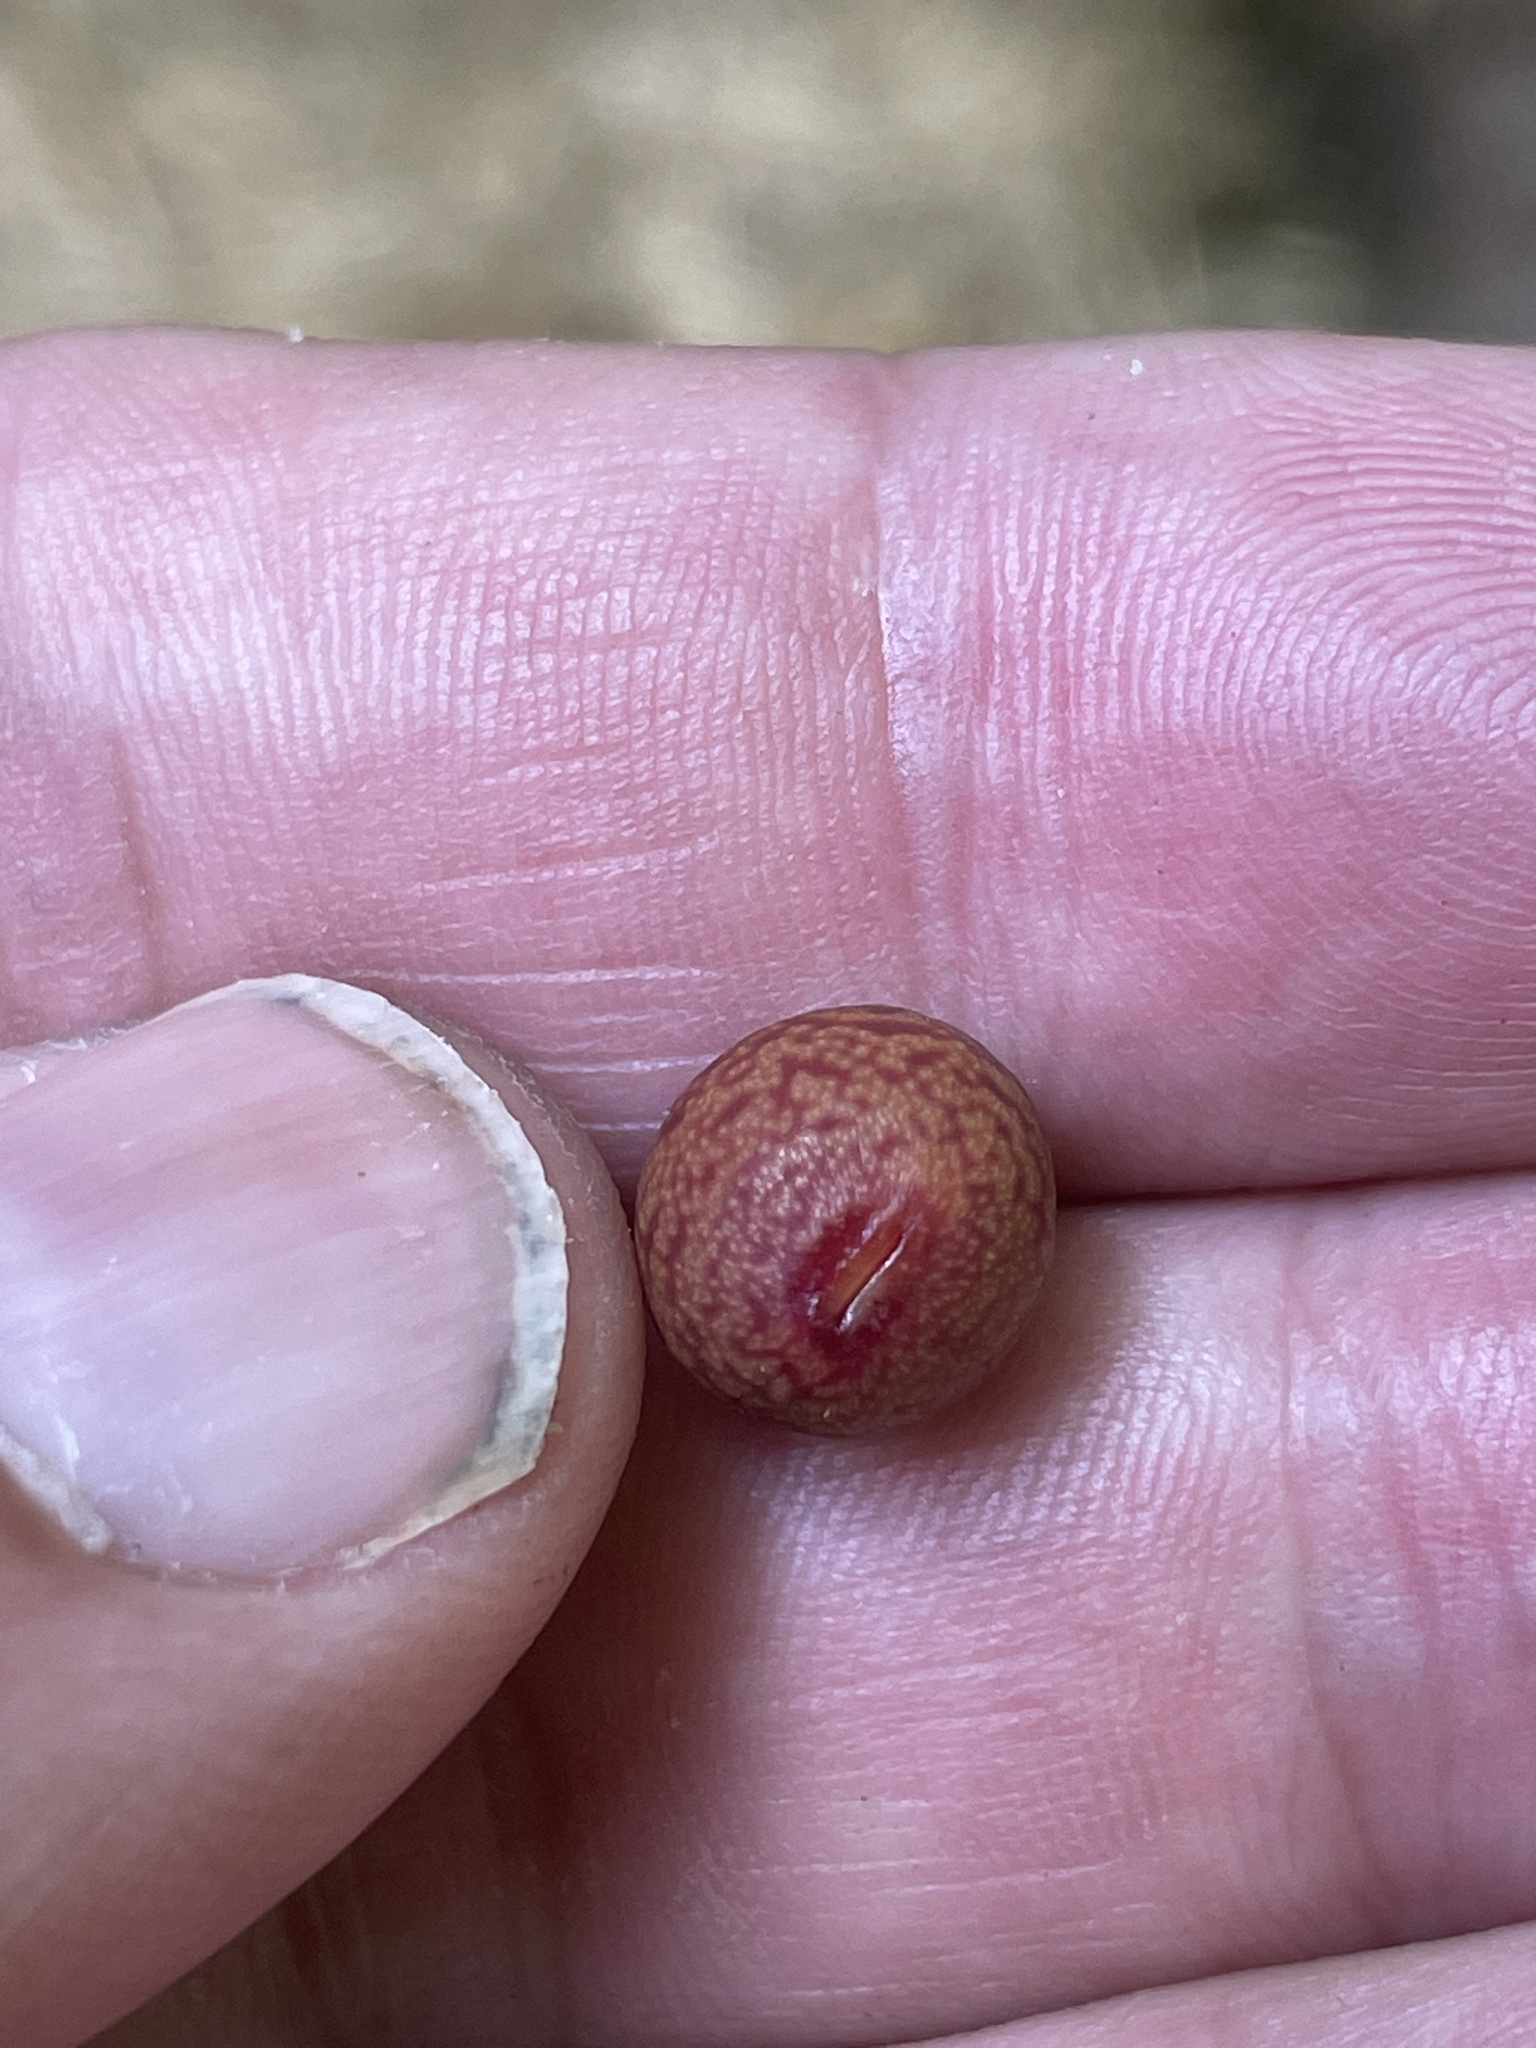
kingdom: Animalia
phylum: Arthropoda
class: Insecta
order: Hymenoptera
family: Cynipidae
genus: Kokkocynips
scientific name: Kokkocynips imbricariae
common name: Banded bullet gall wasp
